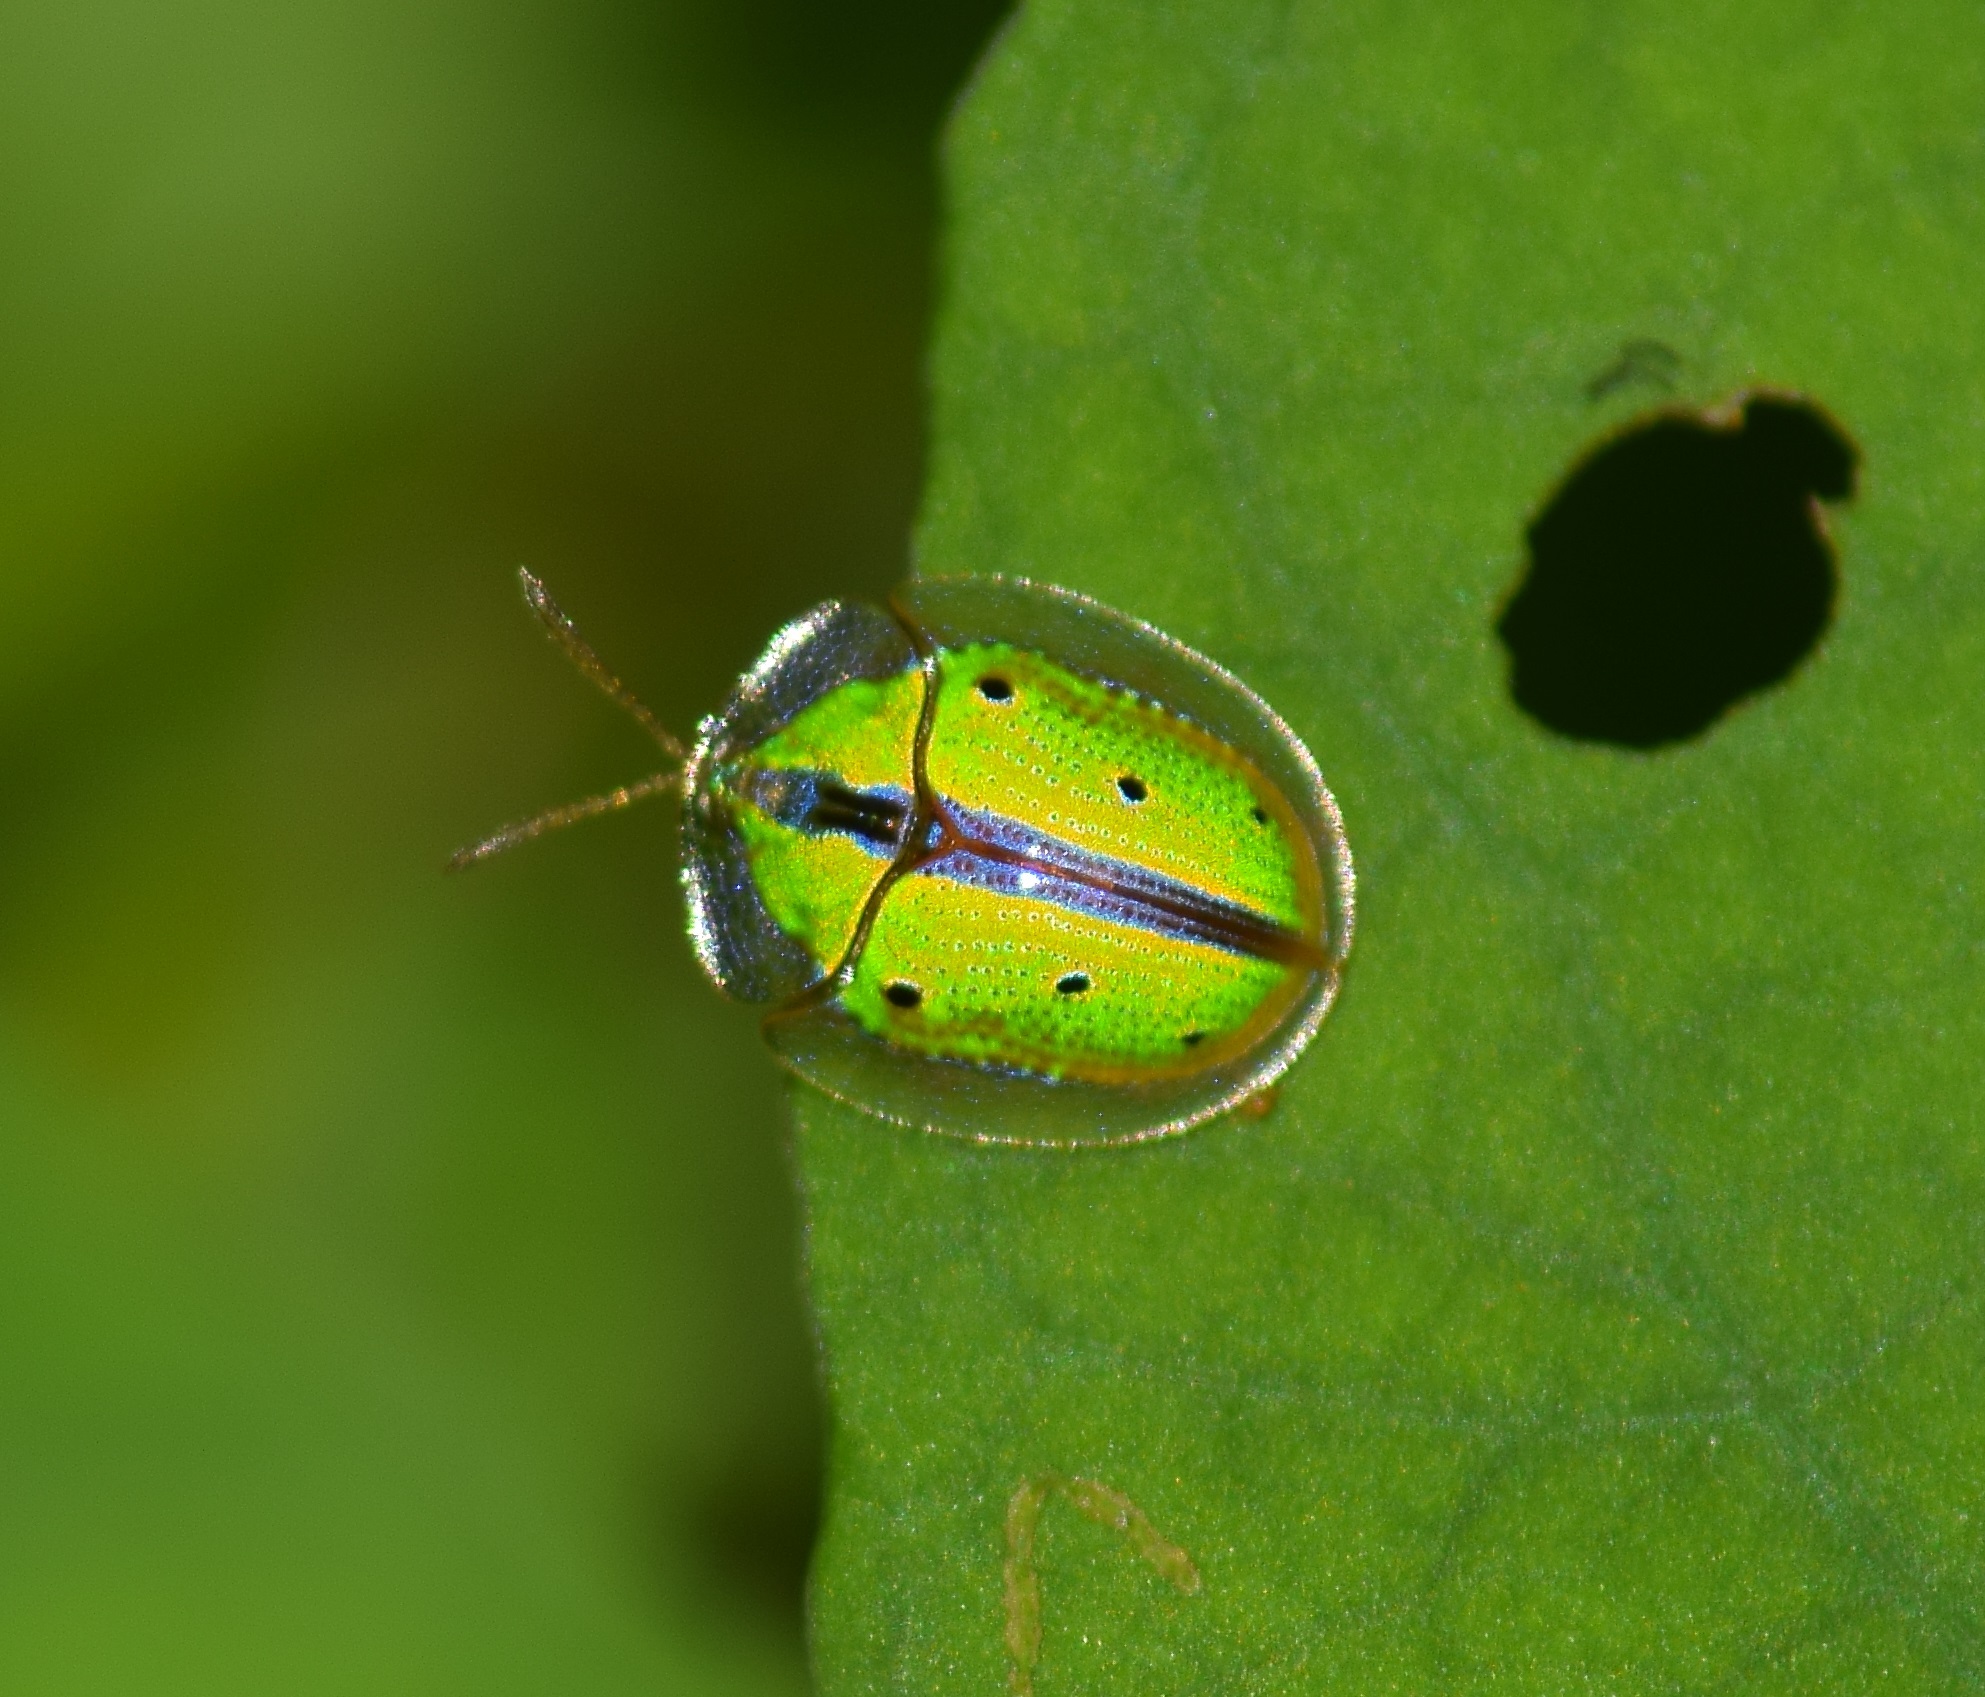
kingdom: Animalia
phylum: Arthropoda
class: Insecta
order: Coleoptera
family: Chrysomelidae
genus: Chiridopsis
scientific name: Chiridopsis bipunctata
